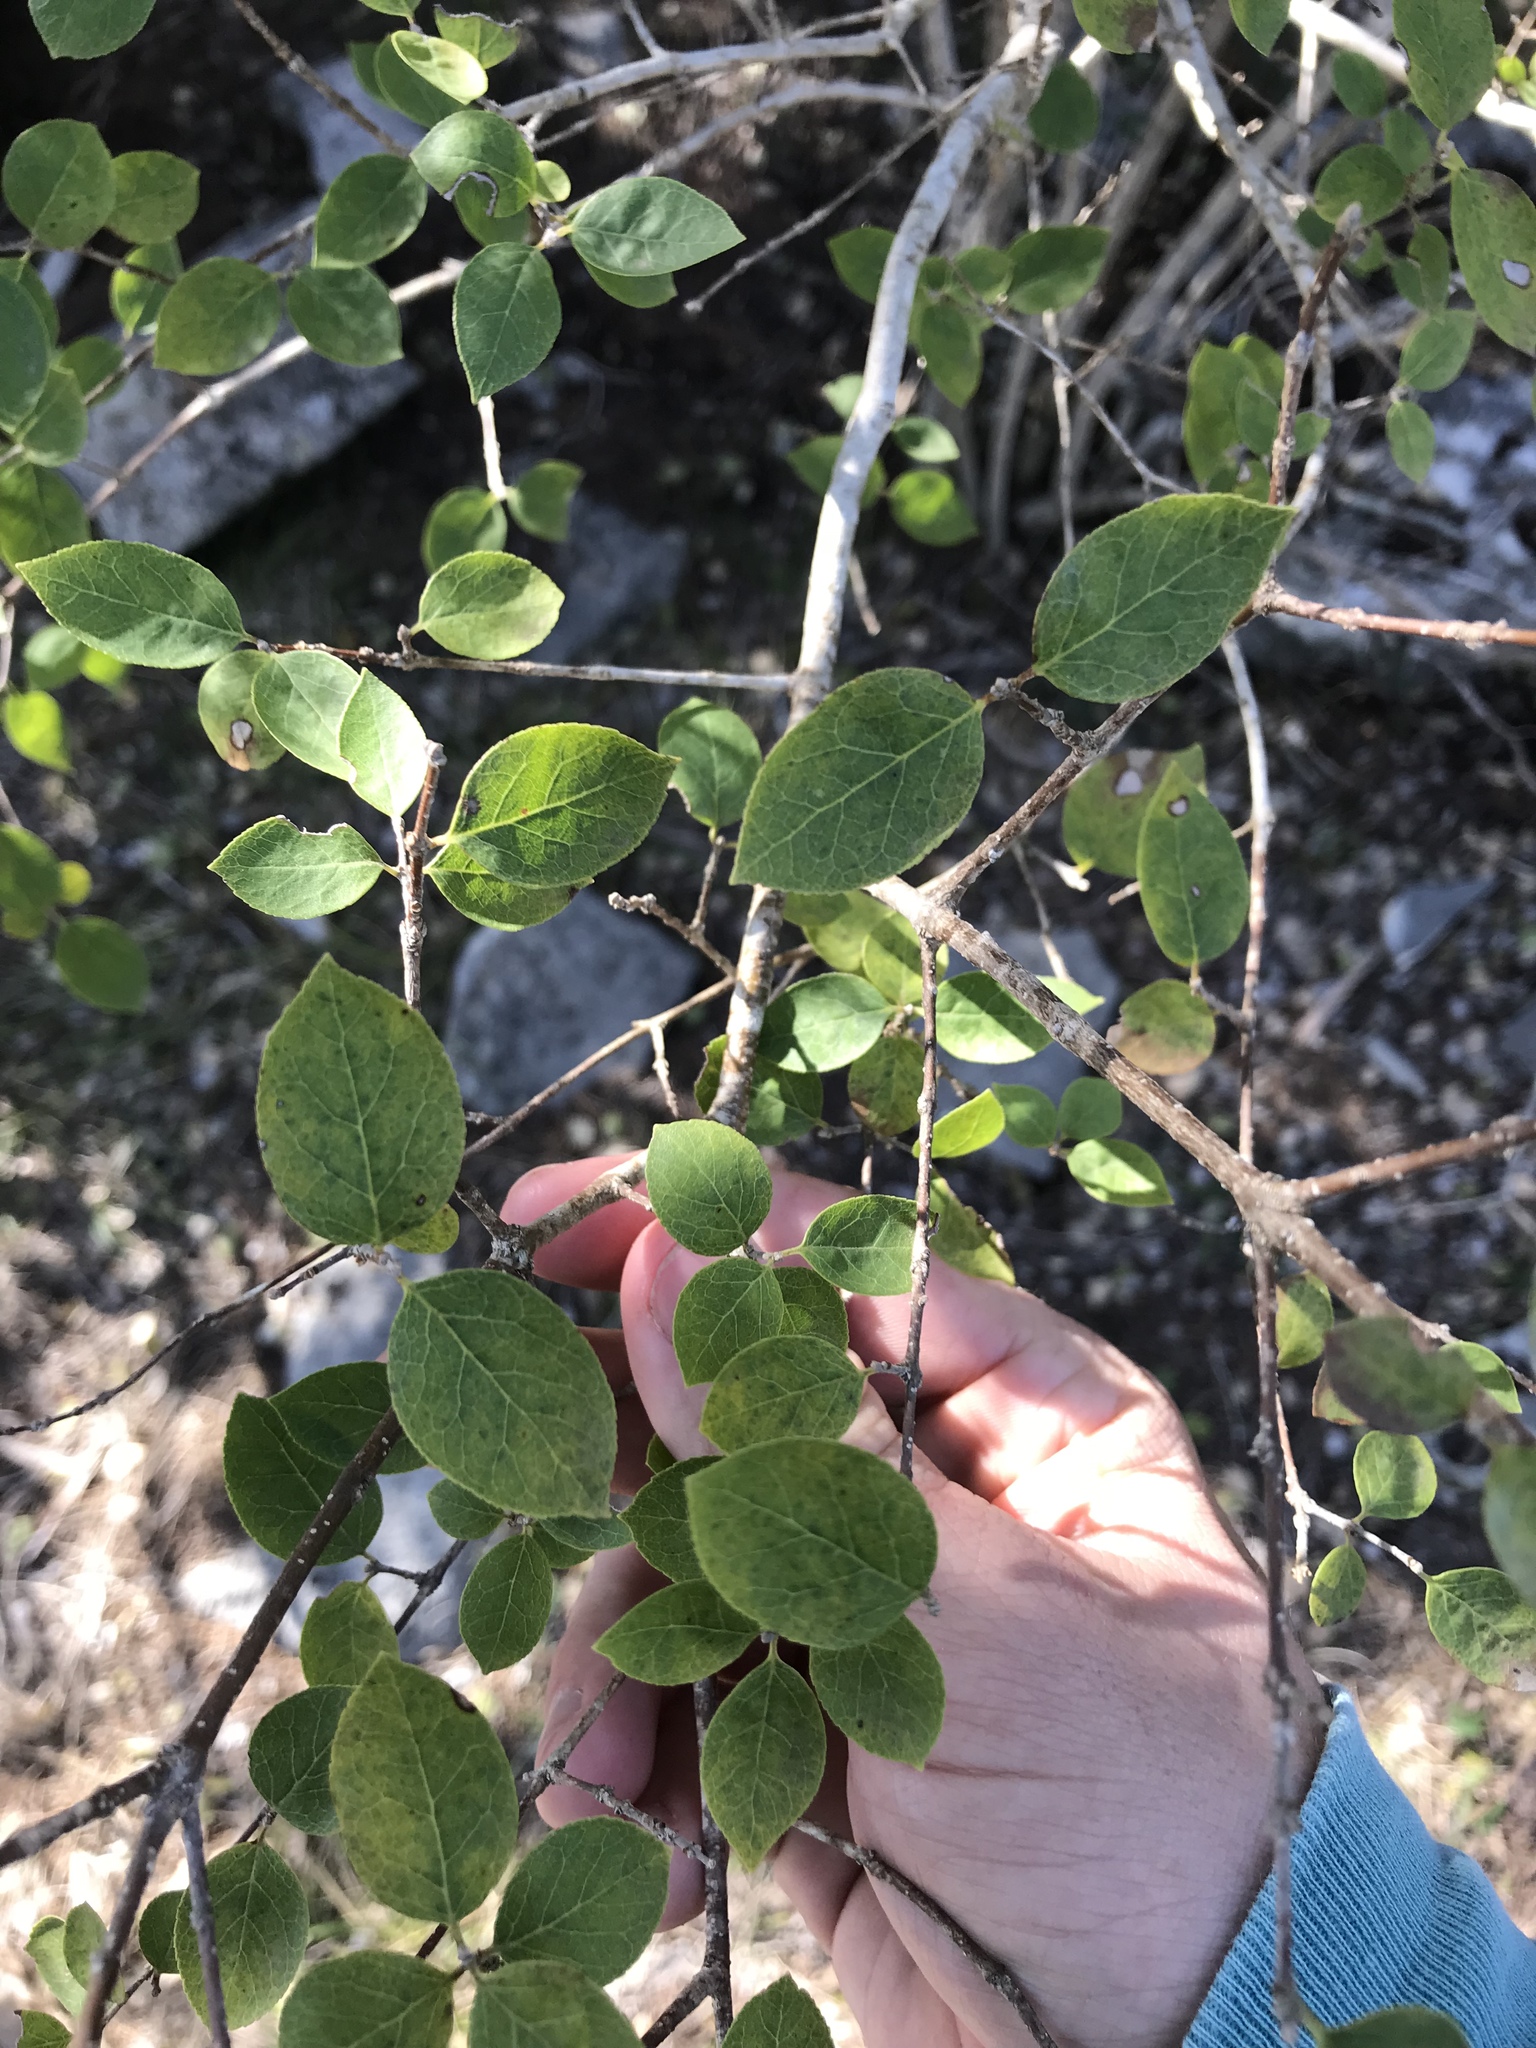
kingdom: Plantae
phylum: Tracheophyta
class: Magnoliopsida
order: Lamiales
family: Oleaceae
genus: Forestiera
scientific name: Forestiera reticulata
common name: Netleaf swamp-privet
